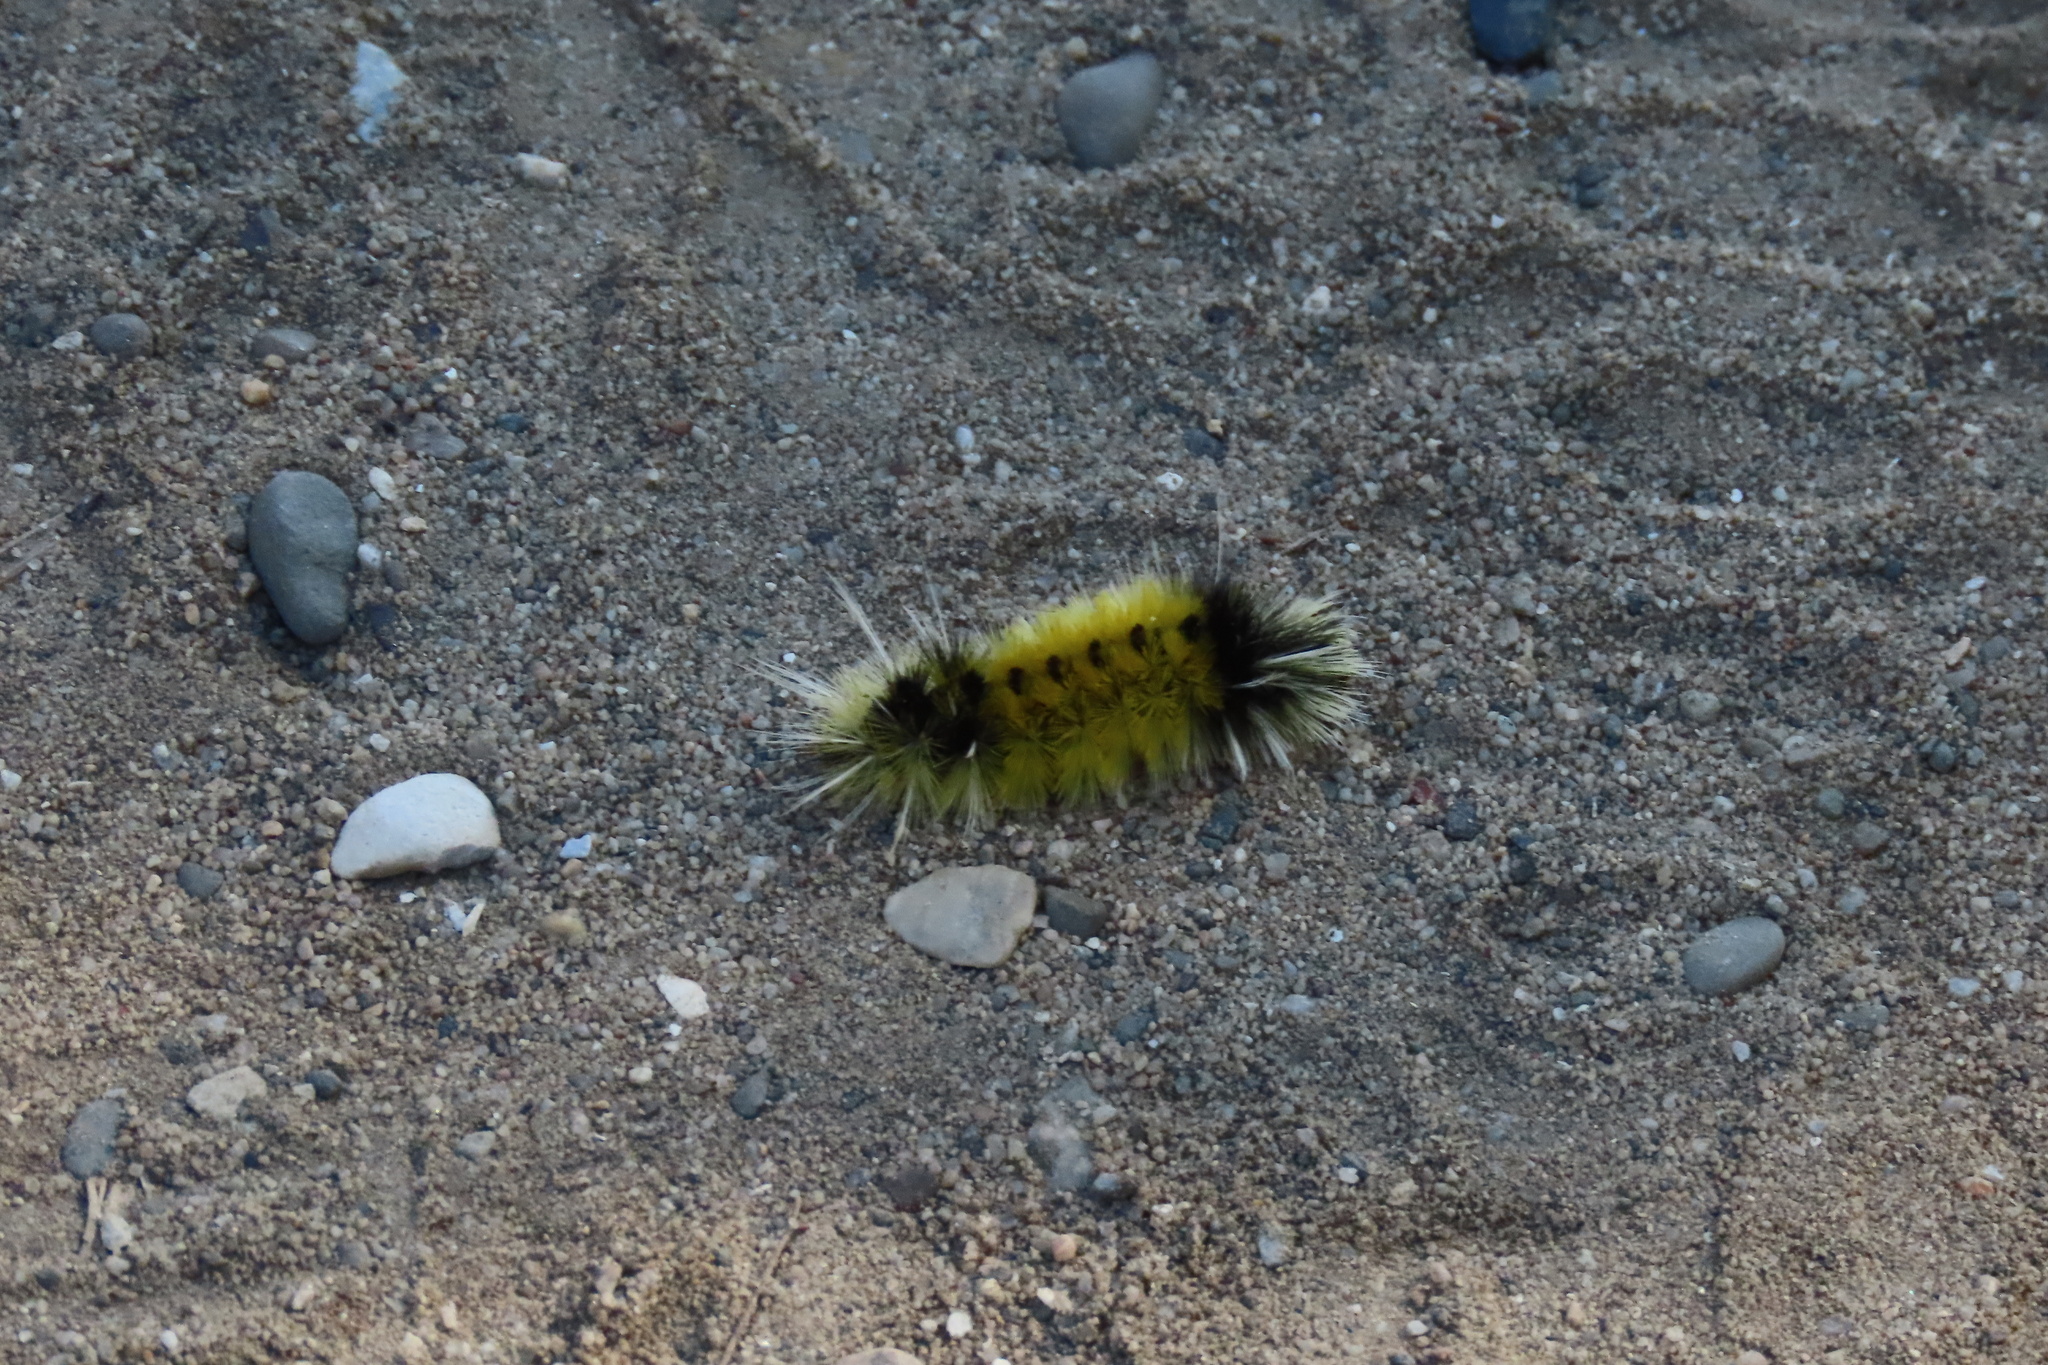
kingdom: Animalia
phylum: Arthropoda
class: Insecta
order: Lepidoptera
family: Erebidae
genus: Lophocampa
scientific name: Lophocampa maculata
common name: Spotted tussock moth
